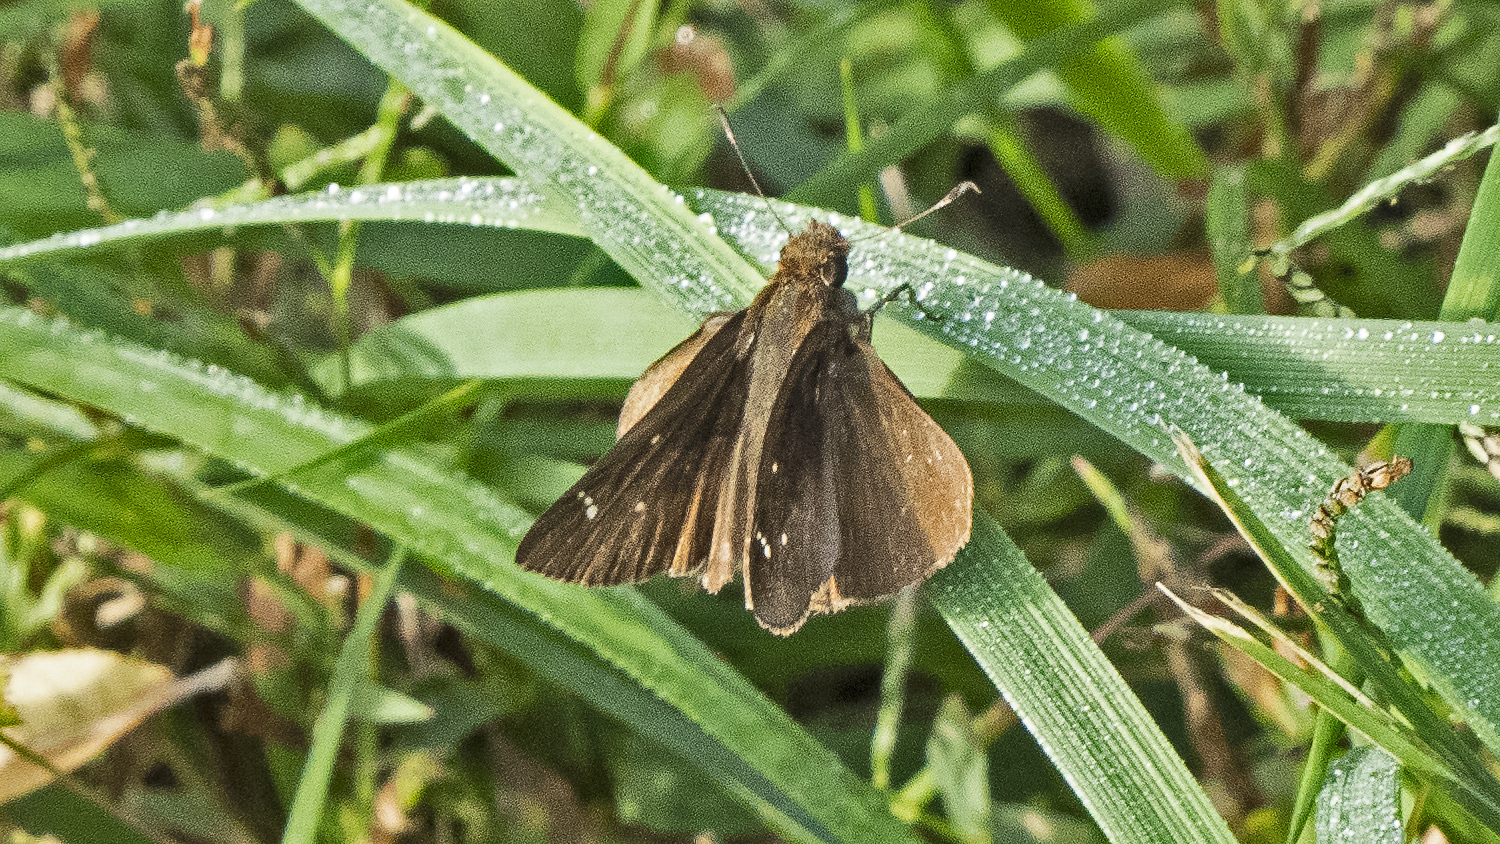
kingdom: Animalia
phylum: Arthropoda
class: Insecta
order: Lepidoptera
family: Hesperiidae
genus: Lerema
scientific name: Lerema accius
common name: Clouded skipper
